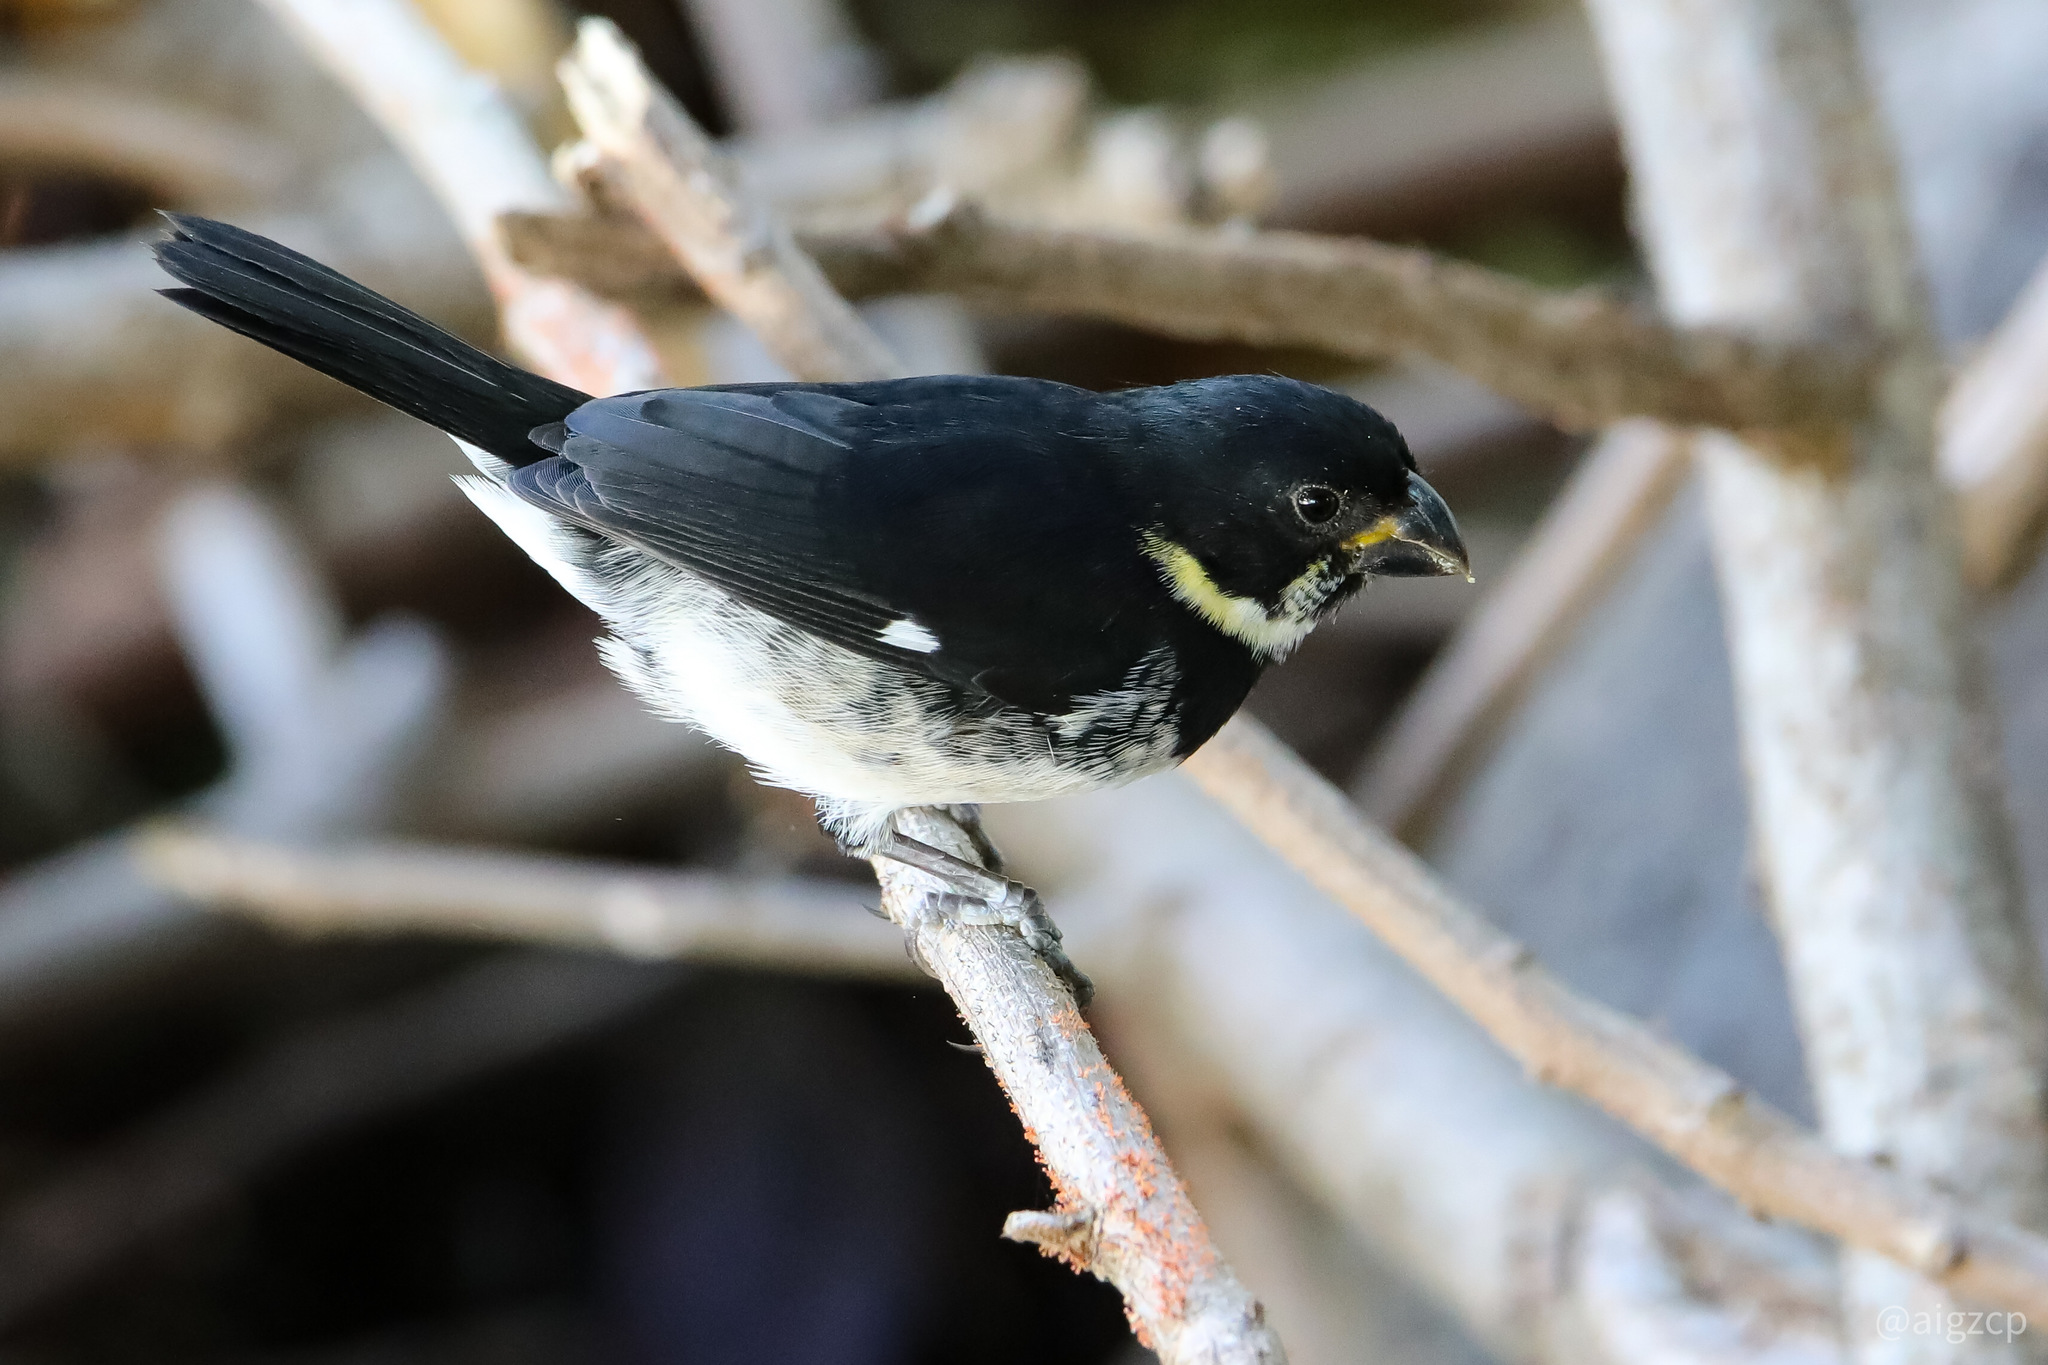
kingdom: Animalia
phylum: Chordata
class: Aves
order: Passeriformes
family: Thraupidae
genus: Sporophila
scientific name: Sporophila corvina
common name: Variable seedeater
